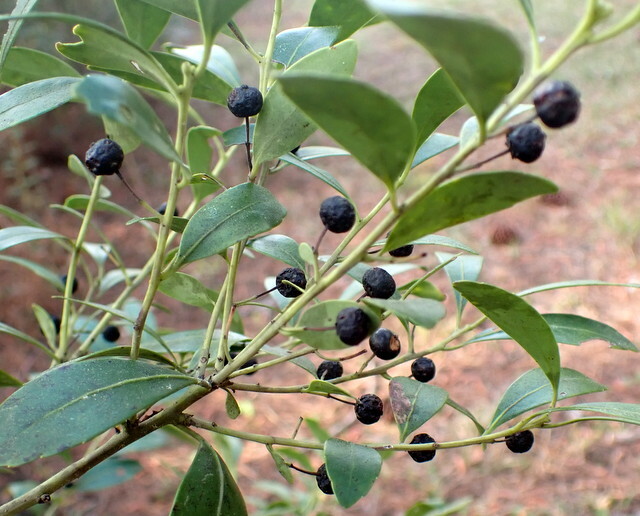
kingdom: Plantae
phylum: Tracheophyta
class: Magnoliopsida
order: Aquifoliales
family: Aquifoliaceae
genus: Ilex
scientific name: Ilex glabra
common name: Bitter gallberry
